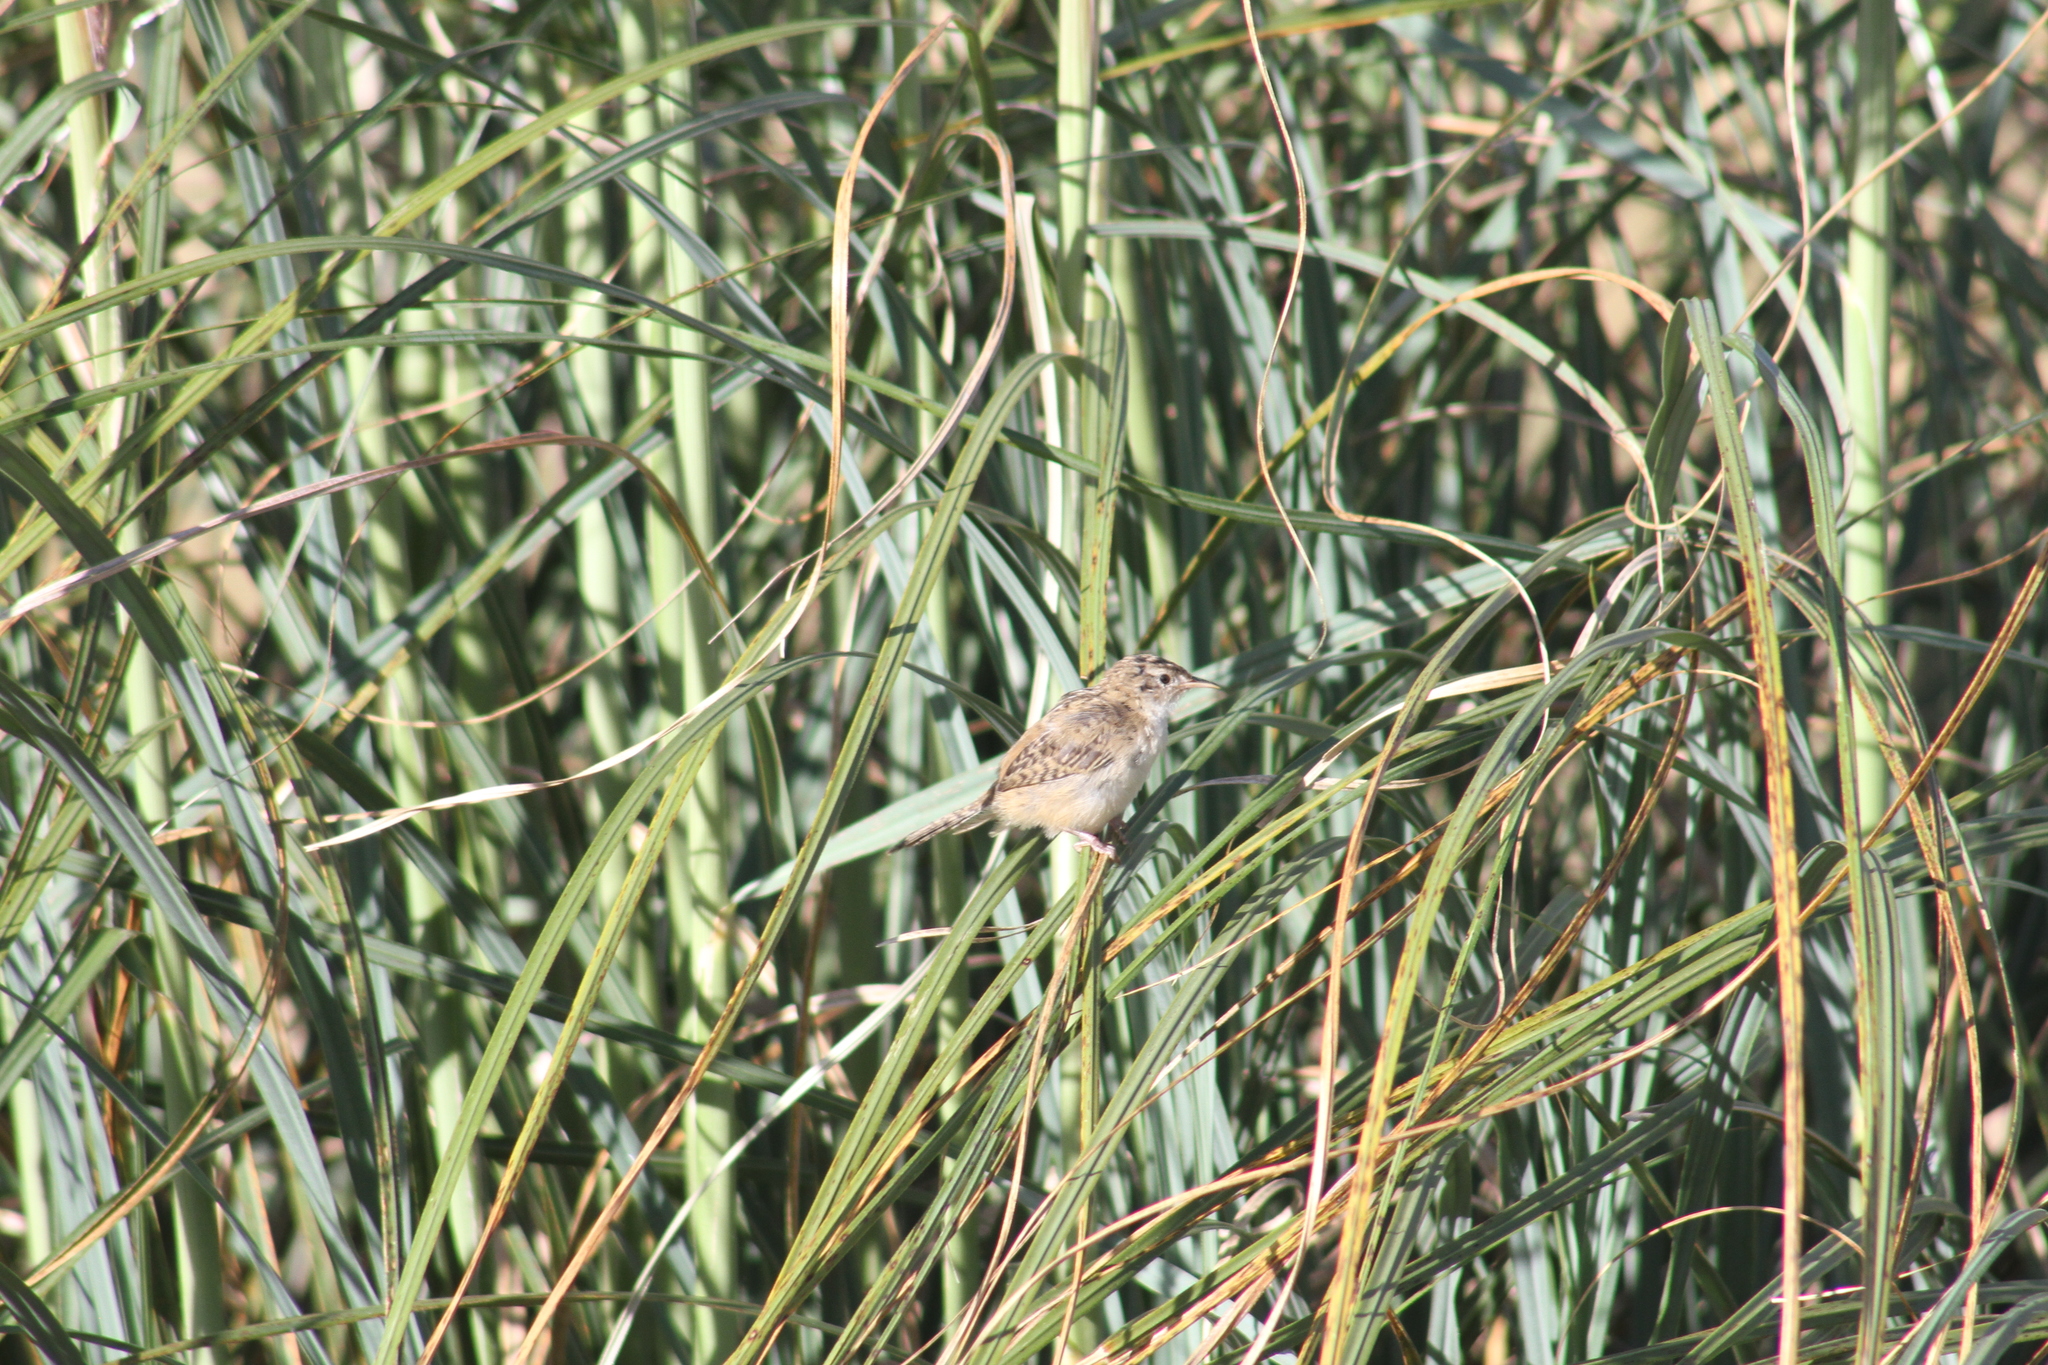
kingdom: Animalia
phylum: Chordata
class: Aves
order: Passeriformes
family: Troglodytidae
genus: Cistothorus
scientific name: Cistothorus platensis
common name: Sedge wren
